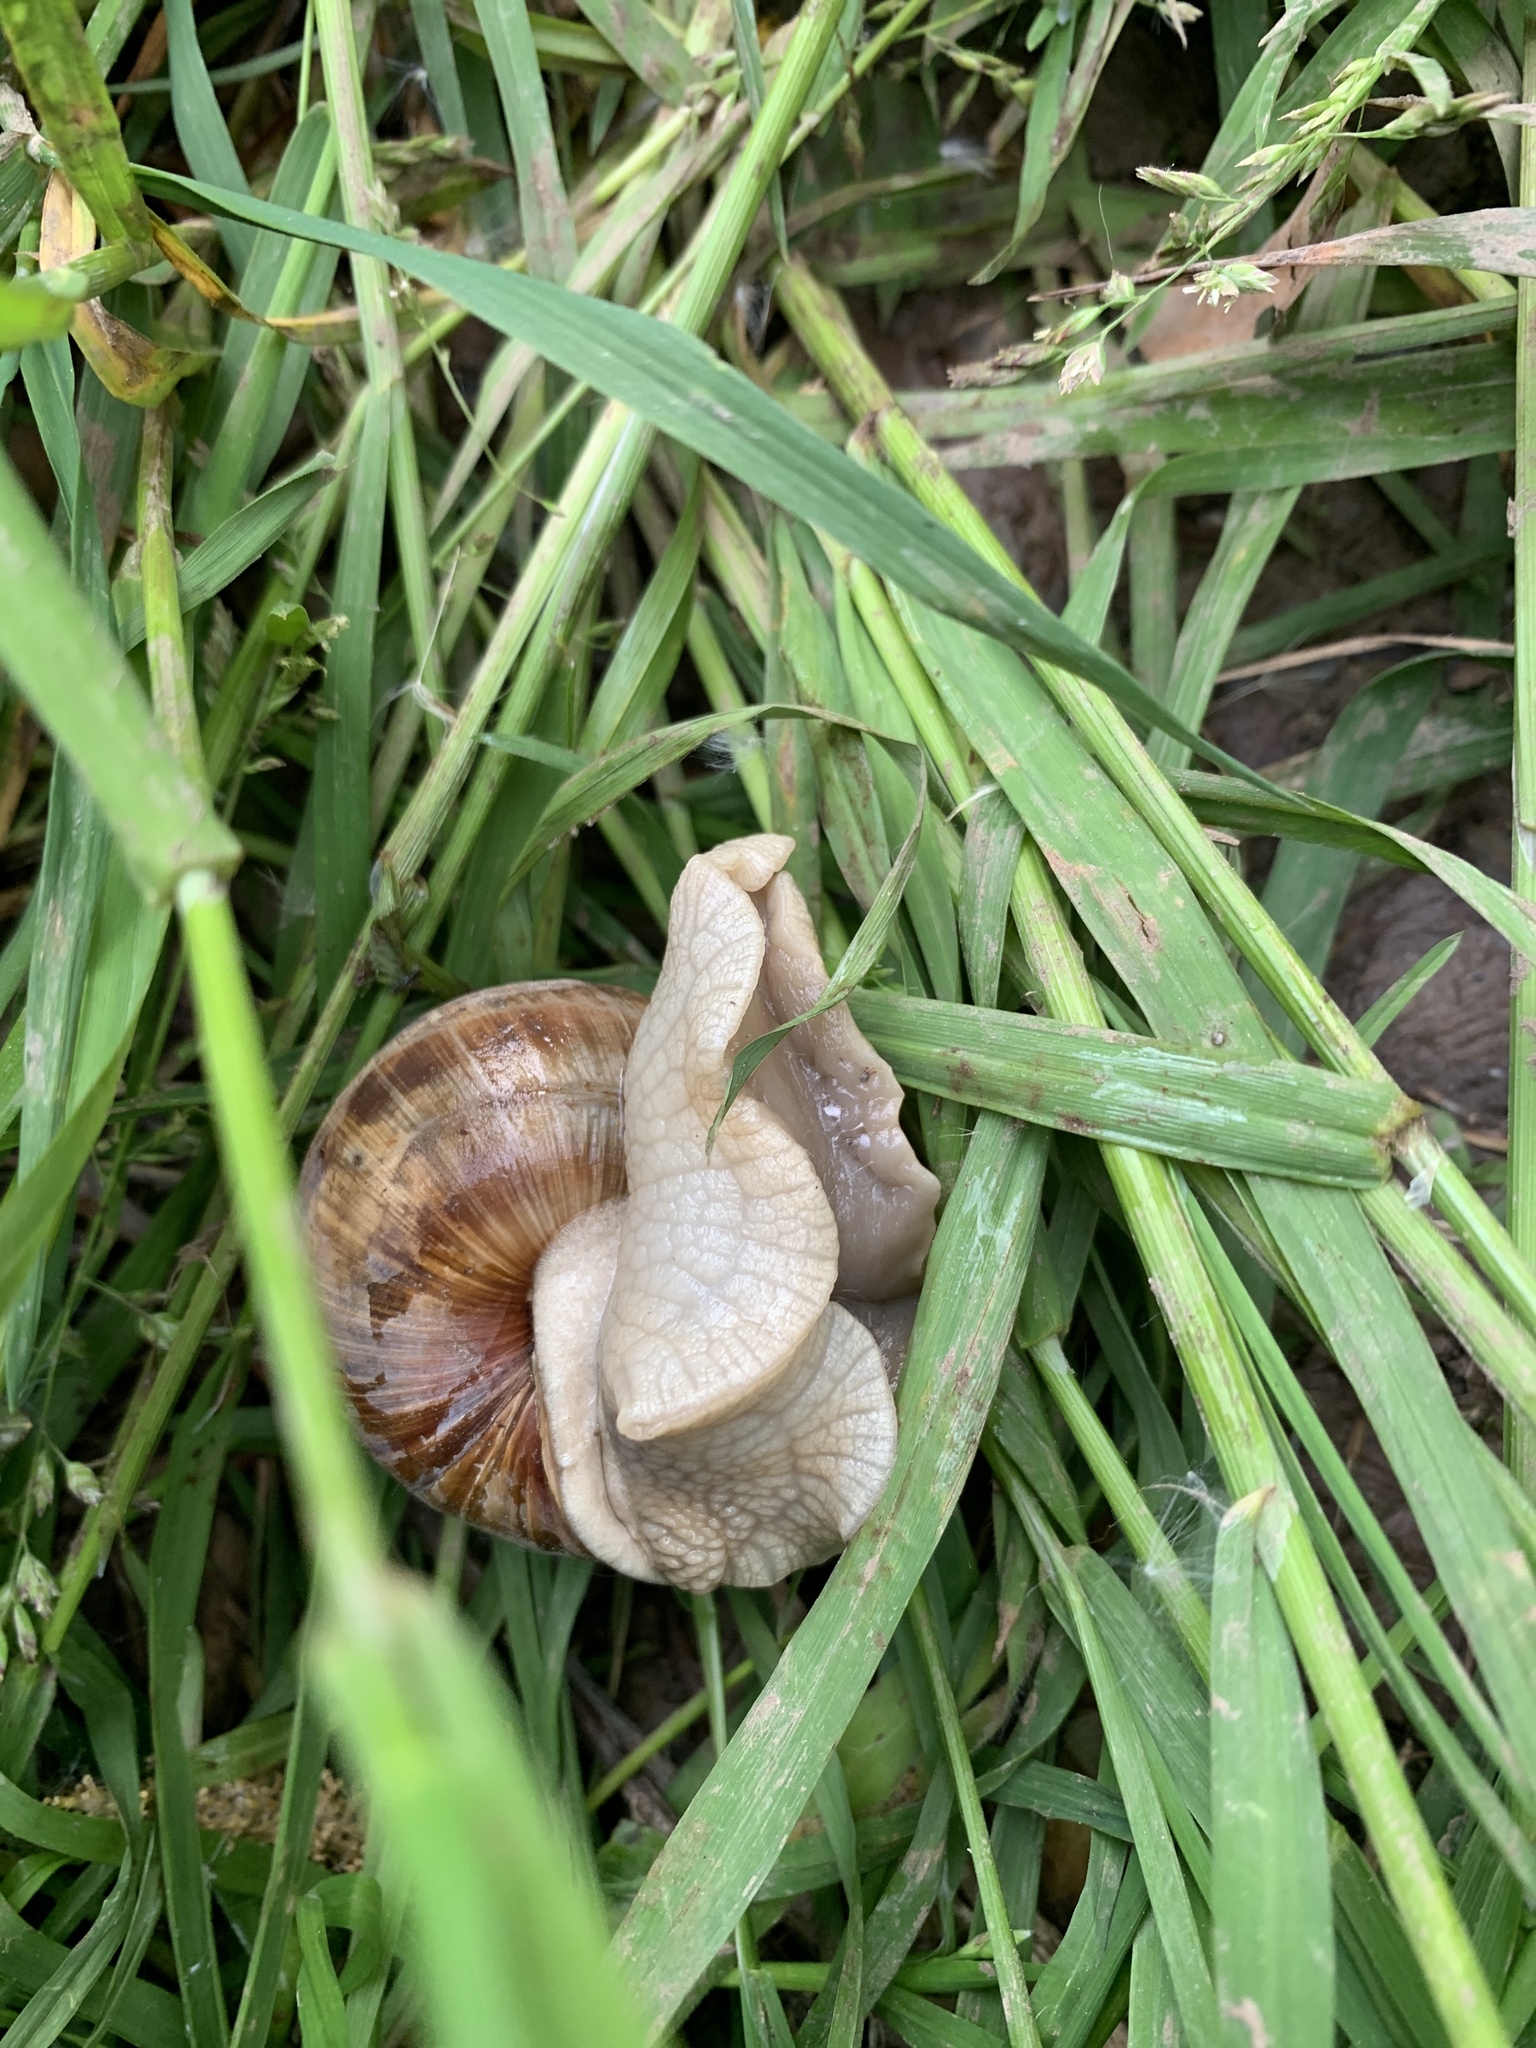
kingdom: Animalia
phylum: Mollusca
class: Gastropoda
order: Stylommatophora
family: Helicidae
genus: Helix
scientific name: Helix pomatia
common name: Roman snail
